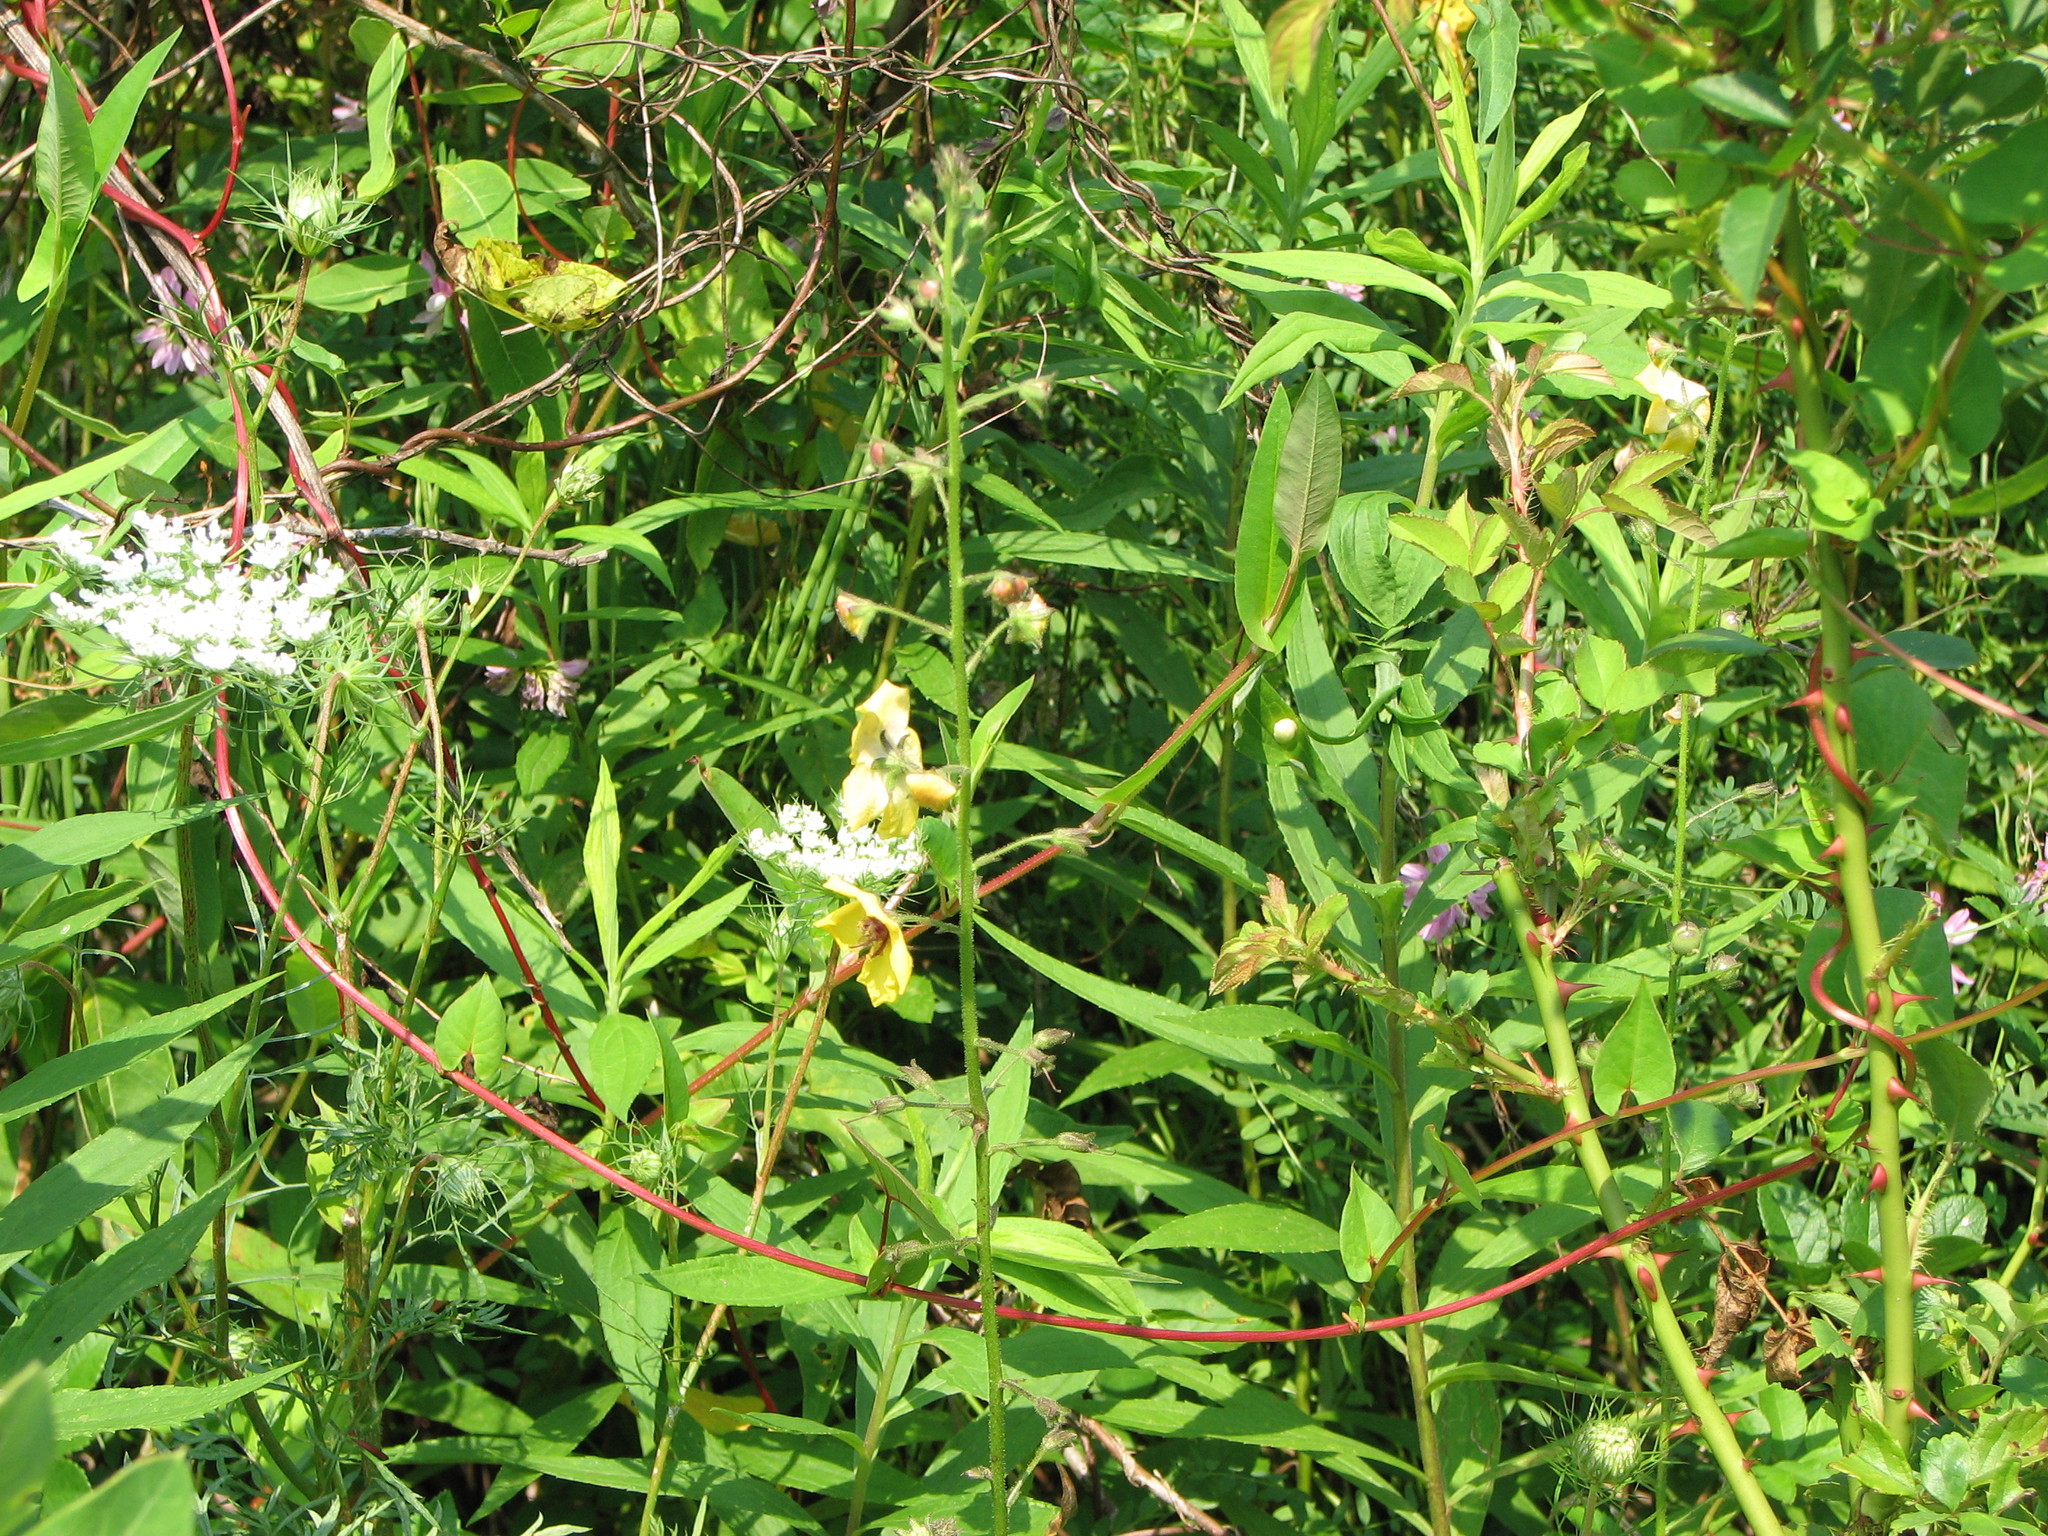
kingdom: Plantae
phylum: Tracheophyta
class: Magnoliopsida
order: Lamiales
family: Scrophulariaceae
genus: Verbascum
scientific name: Verbascum blattaria
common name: Moth mullein
